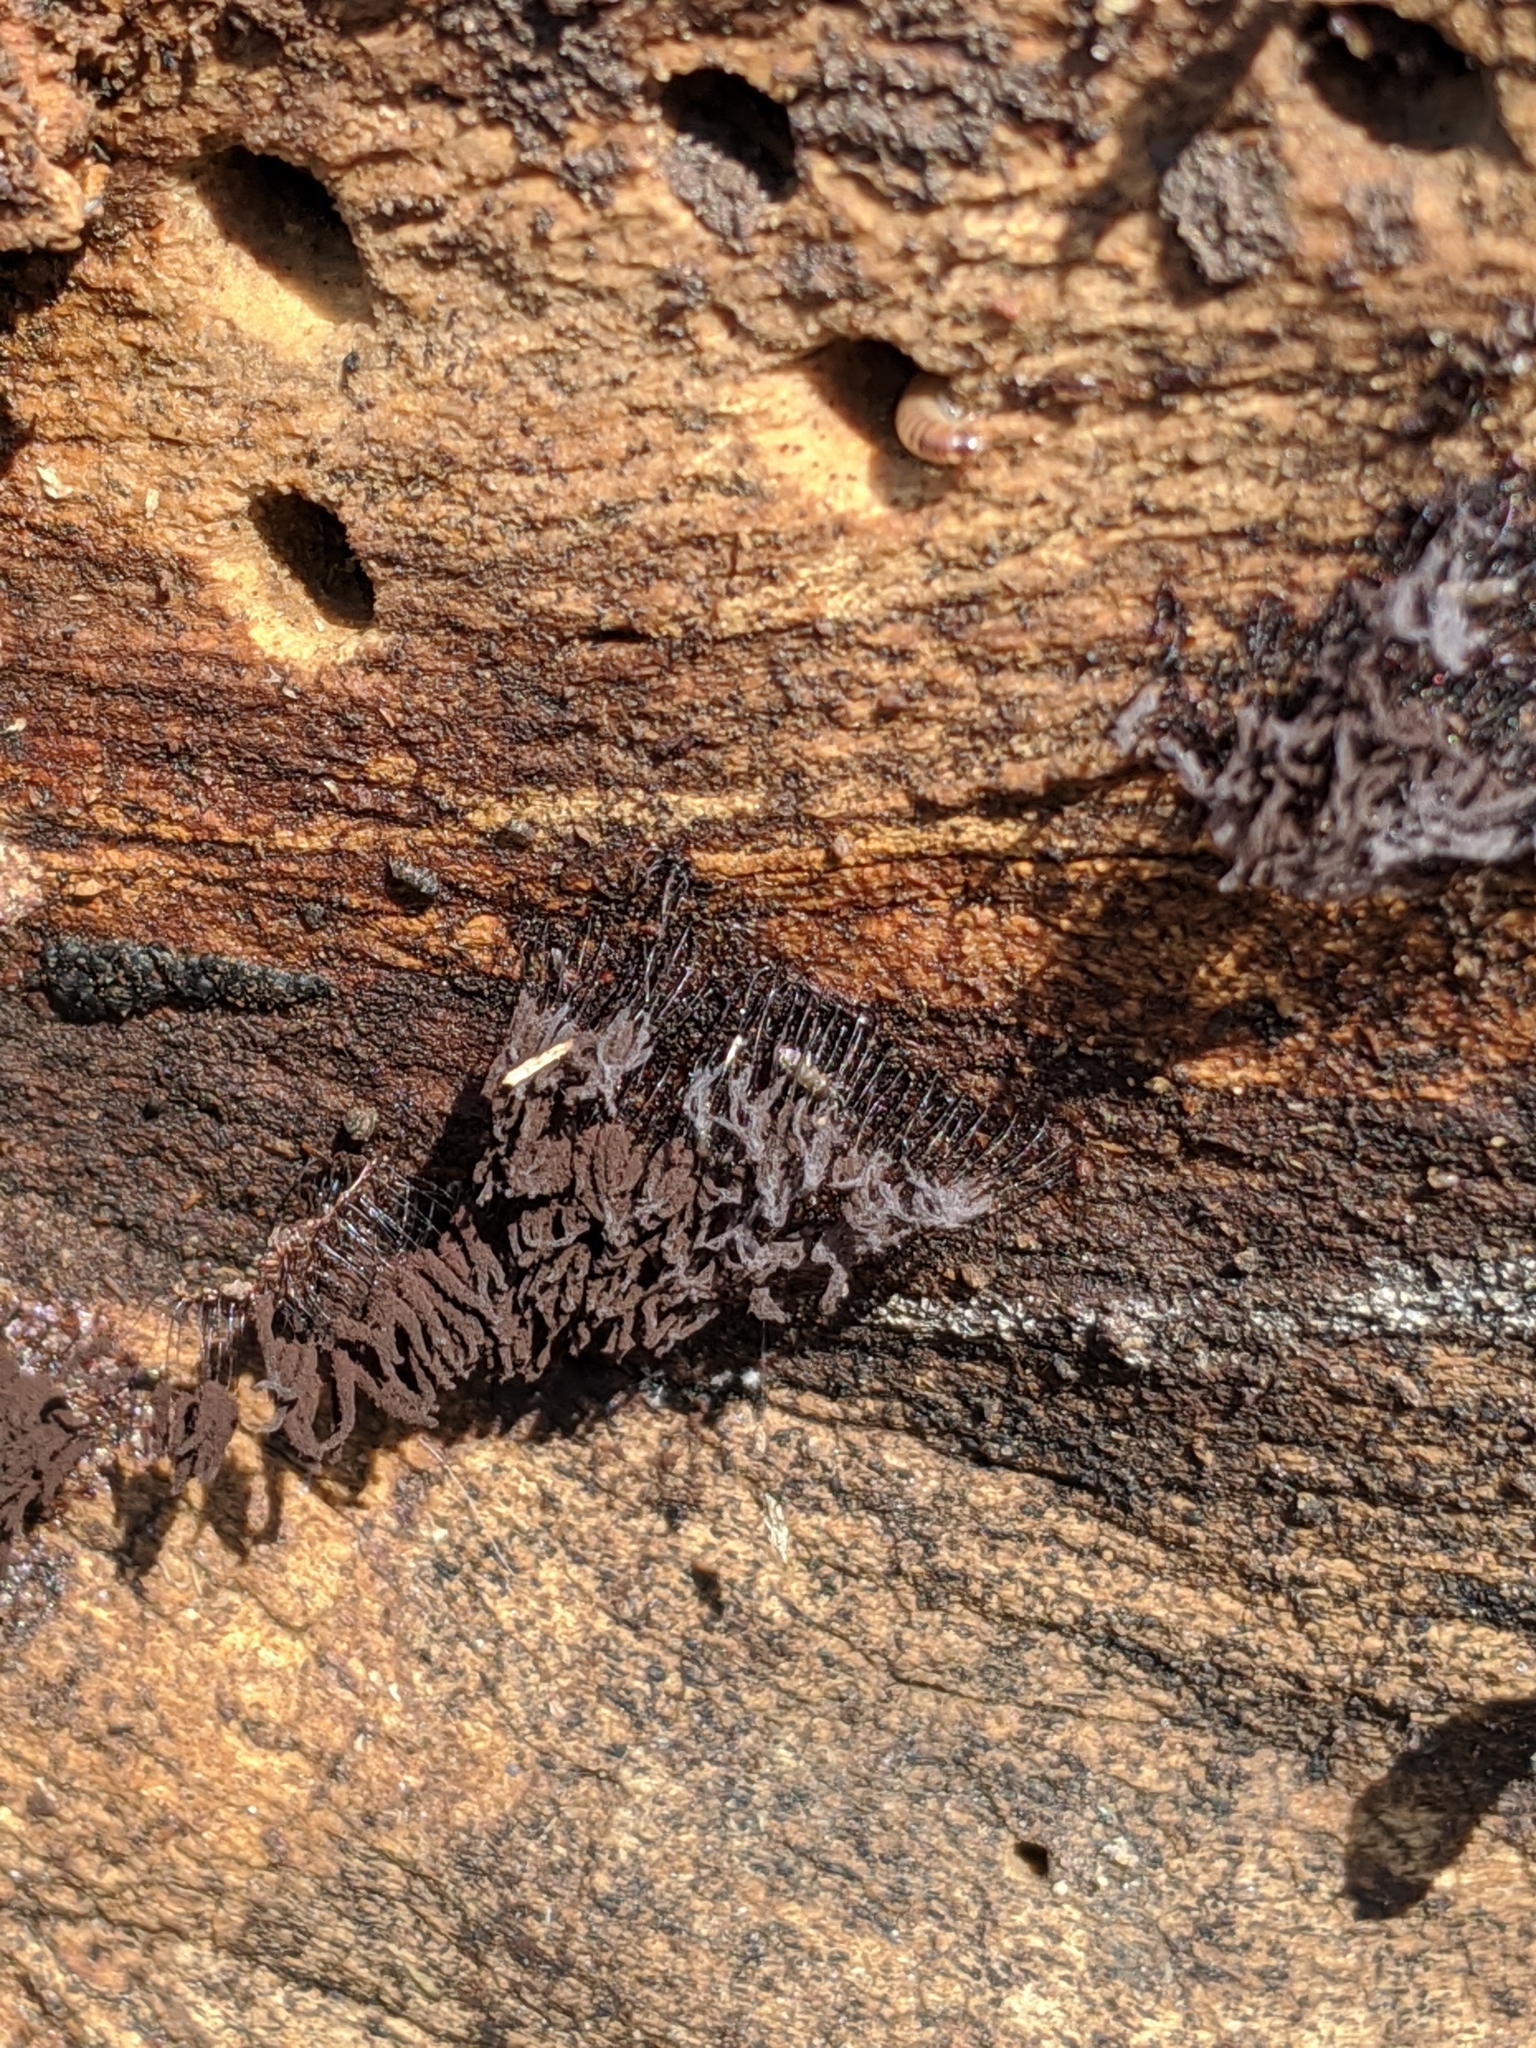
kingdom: Protozoa
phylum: Mycetozoa
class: Myxomycetes
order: Stemonitidales
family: Stemonitidaceae
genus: Stemonitis
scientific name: Stemonitis
